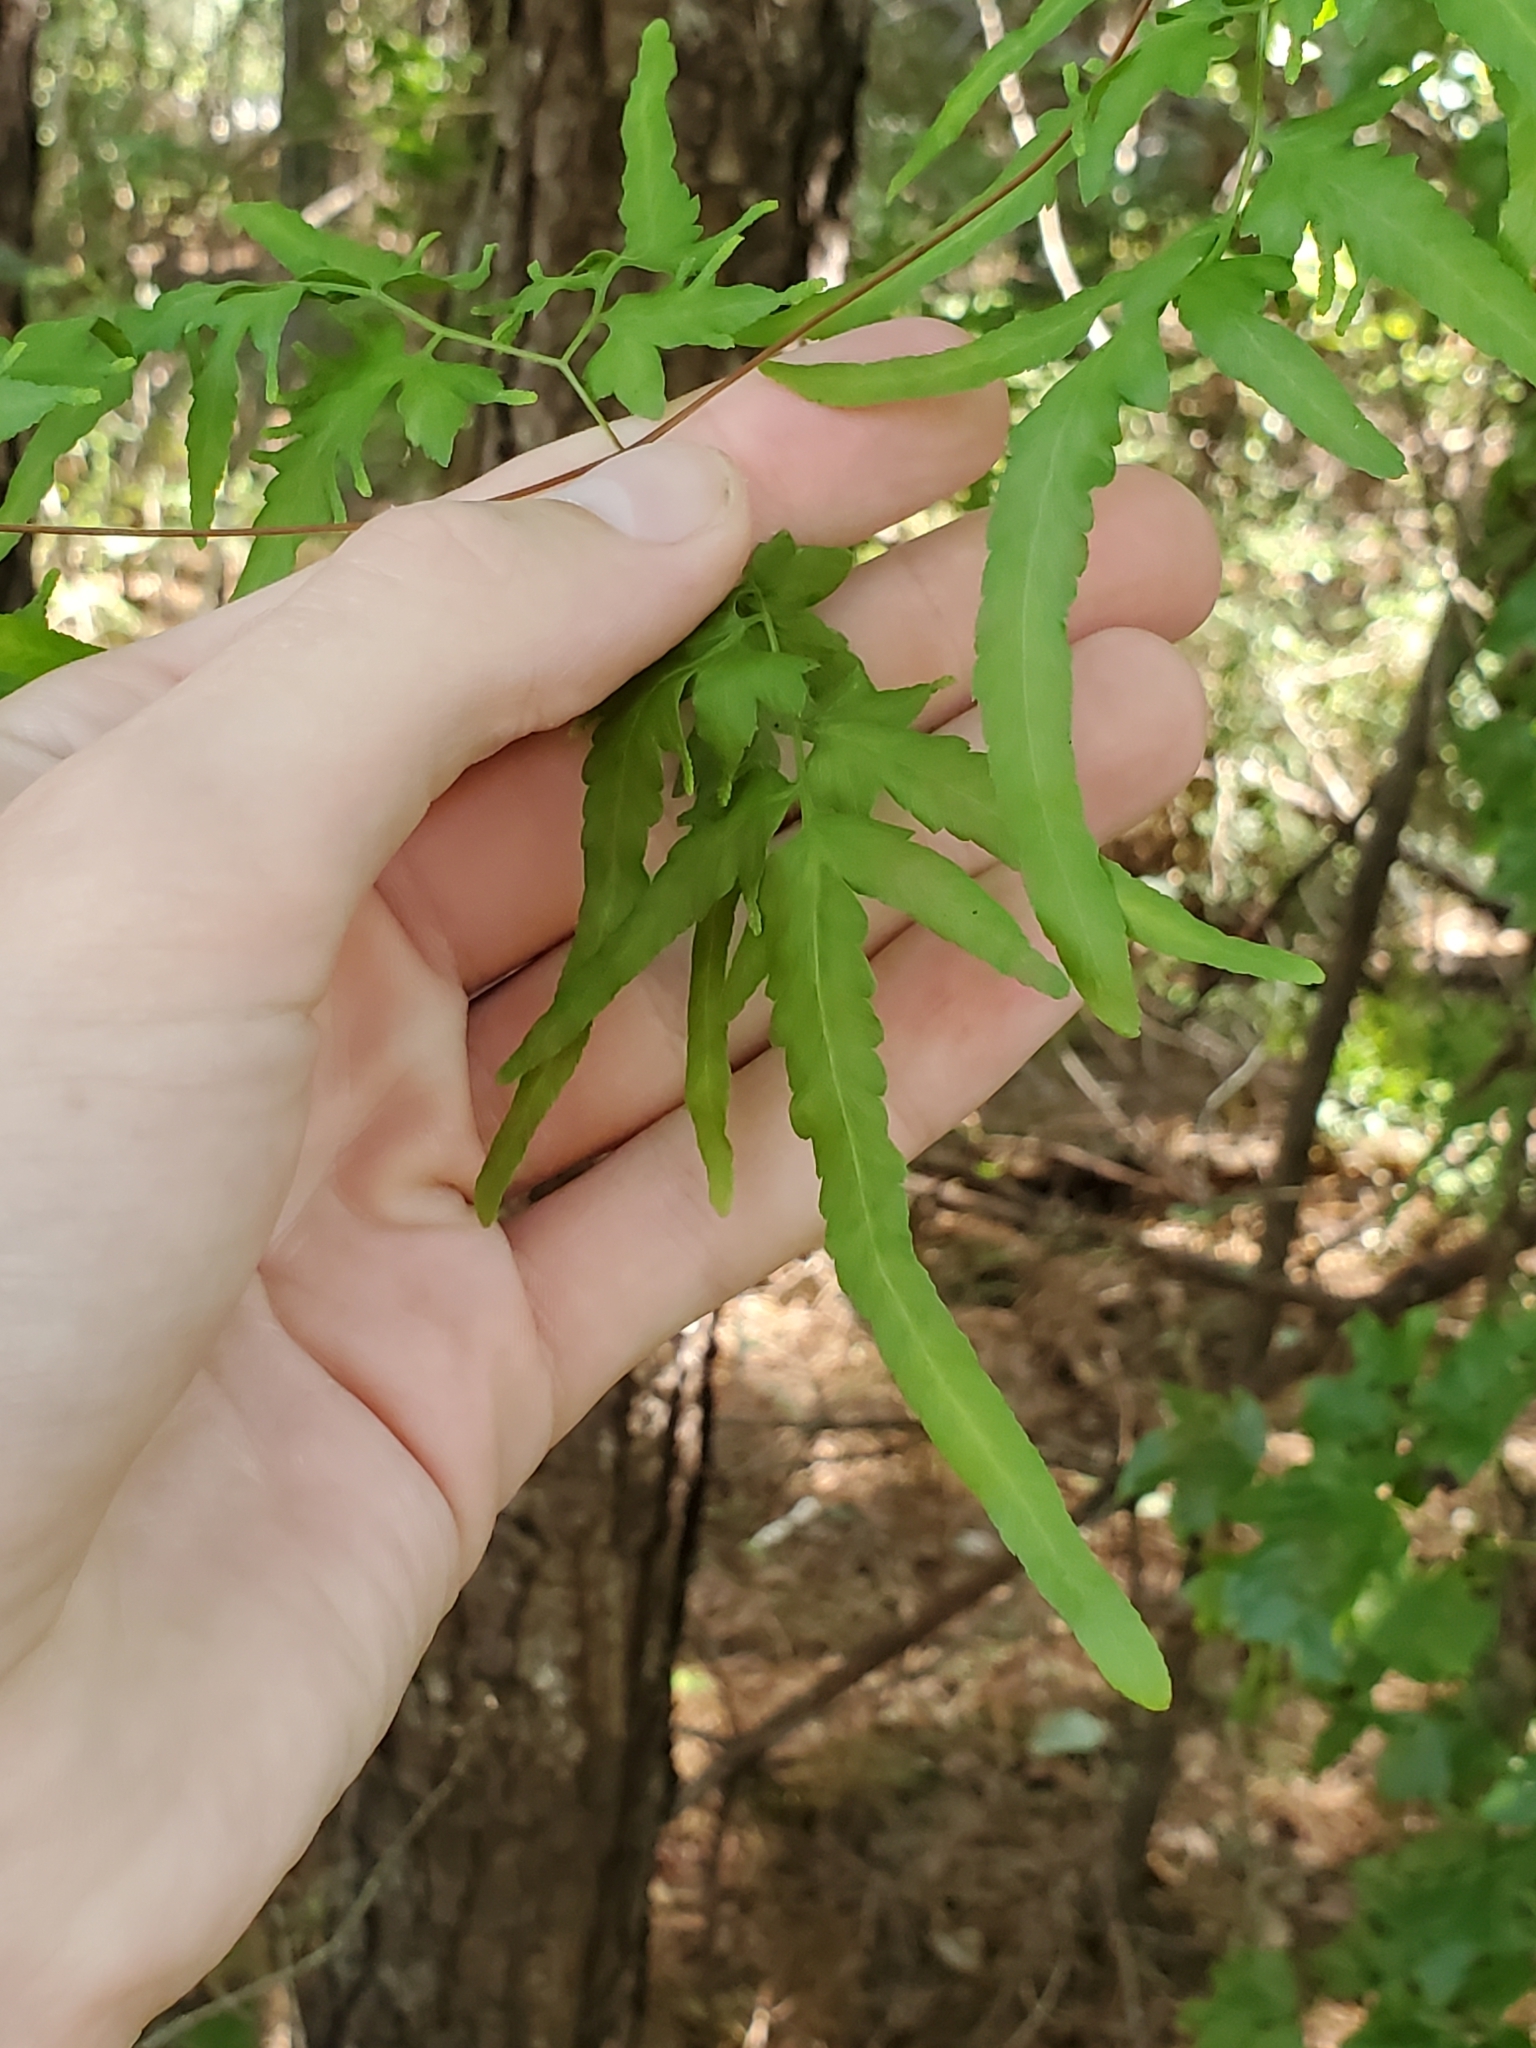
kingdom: Plantae
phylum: Tracheophyta
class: Polypodiopsida
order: Schizaeales
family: Lygodiaceae
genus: Lygodium
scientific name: Lygodium japonicum
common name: Japanese climbing fern
